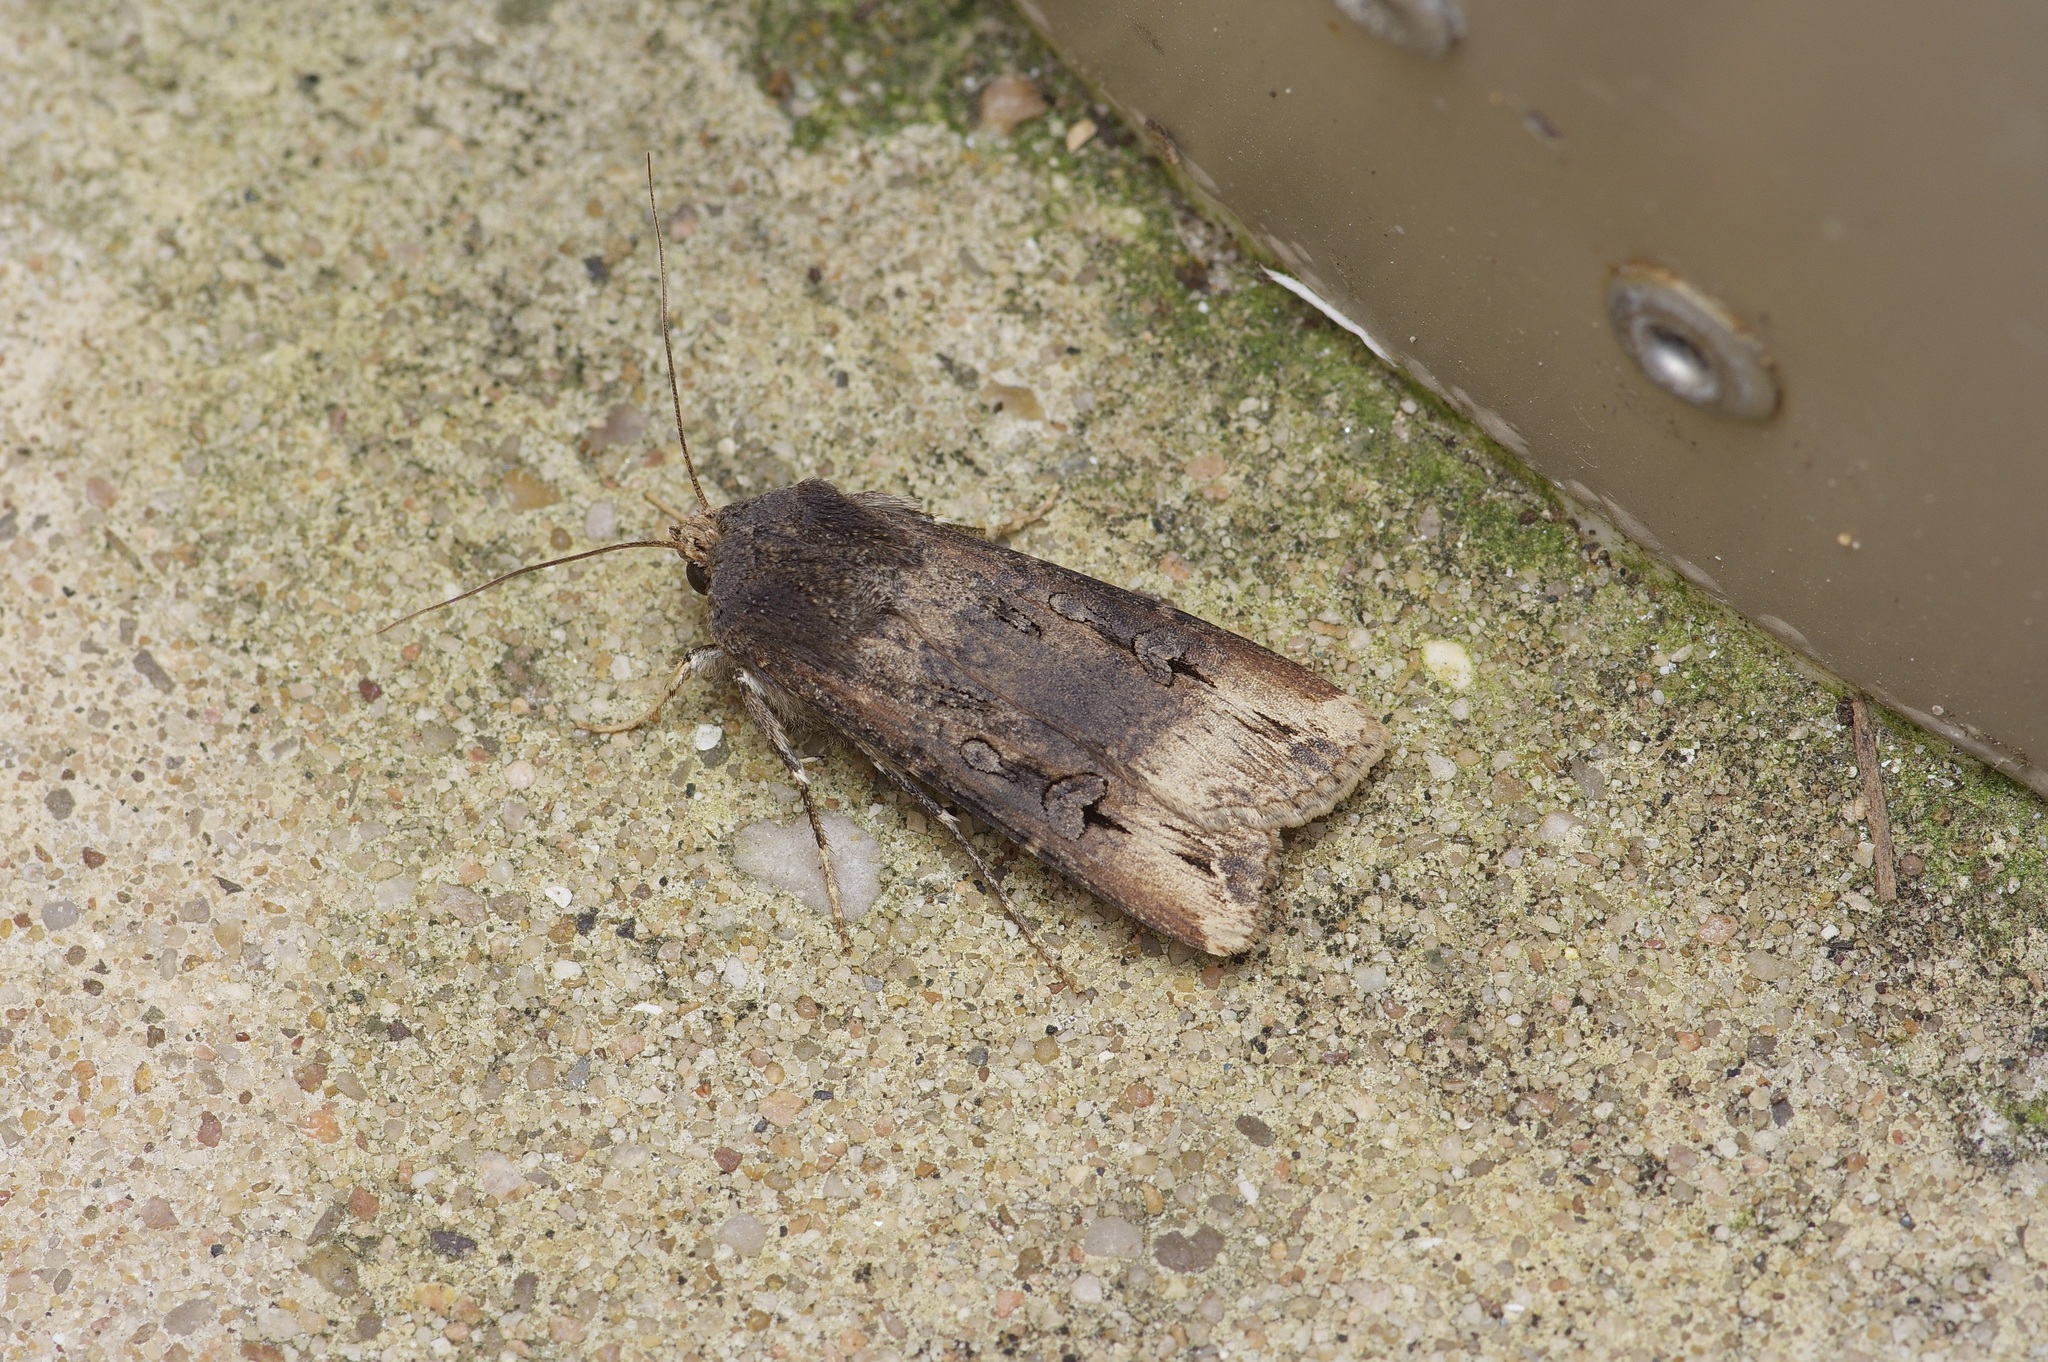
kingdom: Animalia
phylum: Arthropoda
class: Insecta
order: Lepidoptera
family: Noctuidae
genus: Agrotis
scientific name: Agrotis ipsilon
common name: Dark sword-grass
